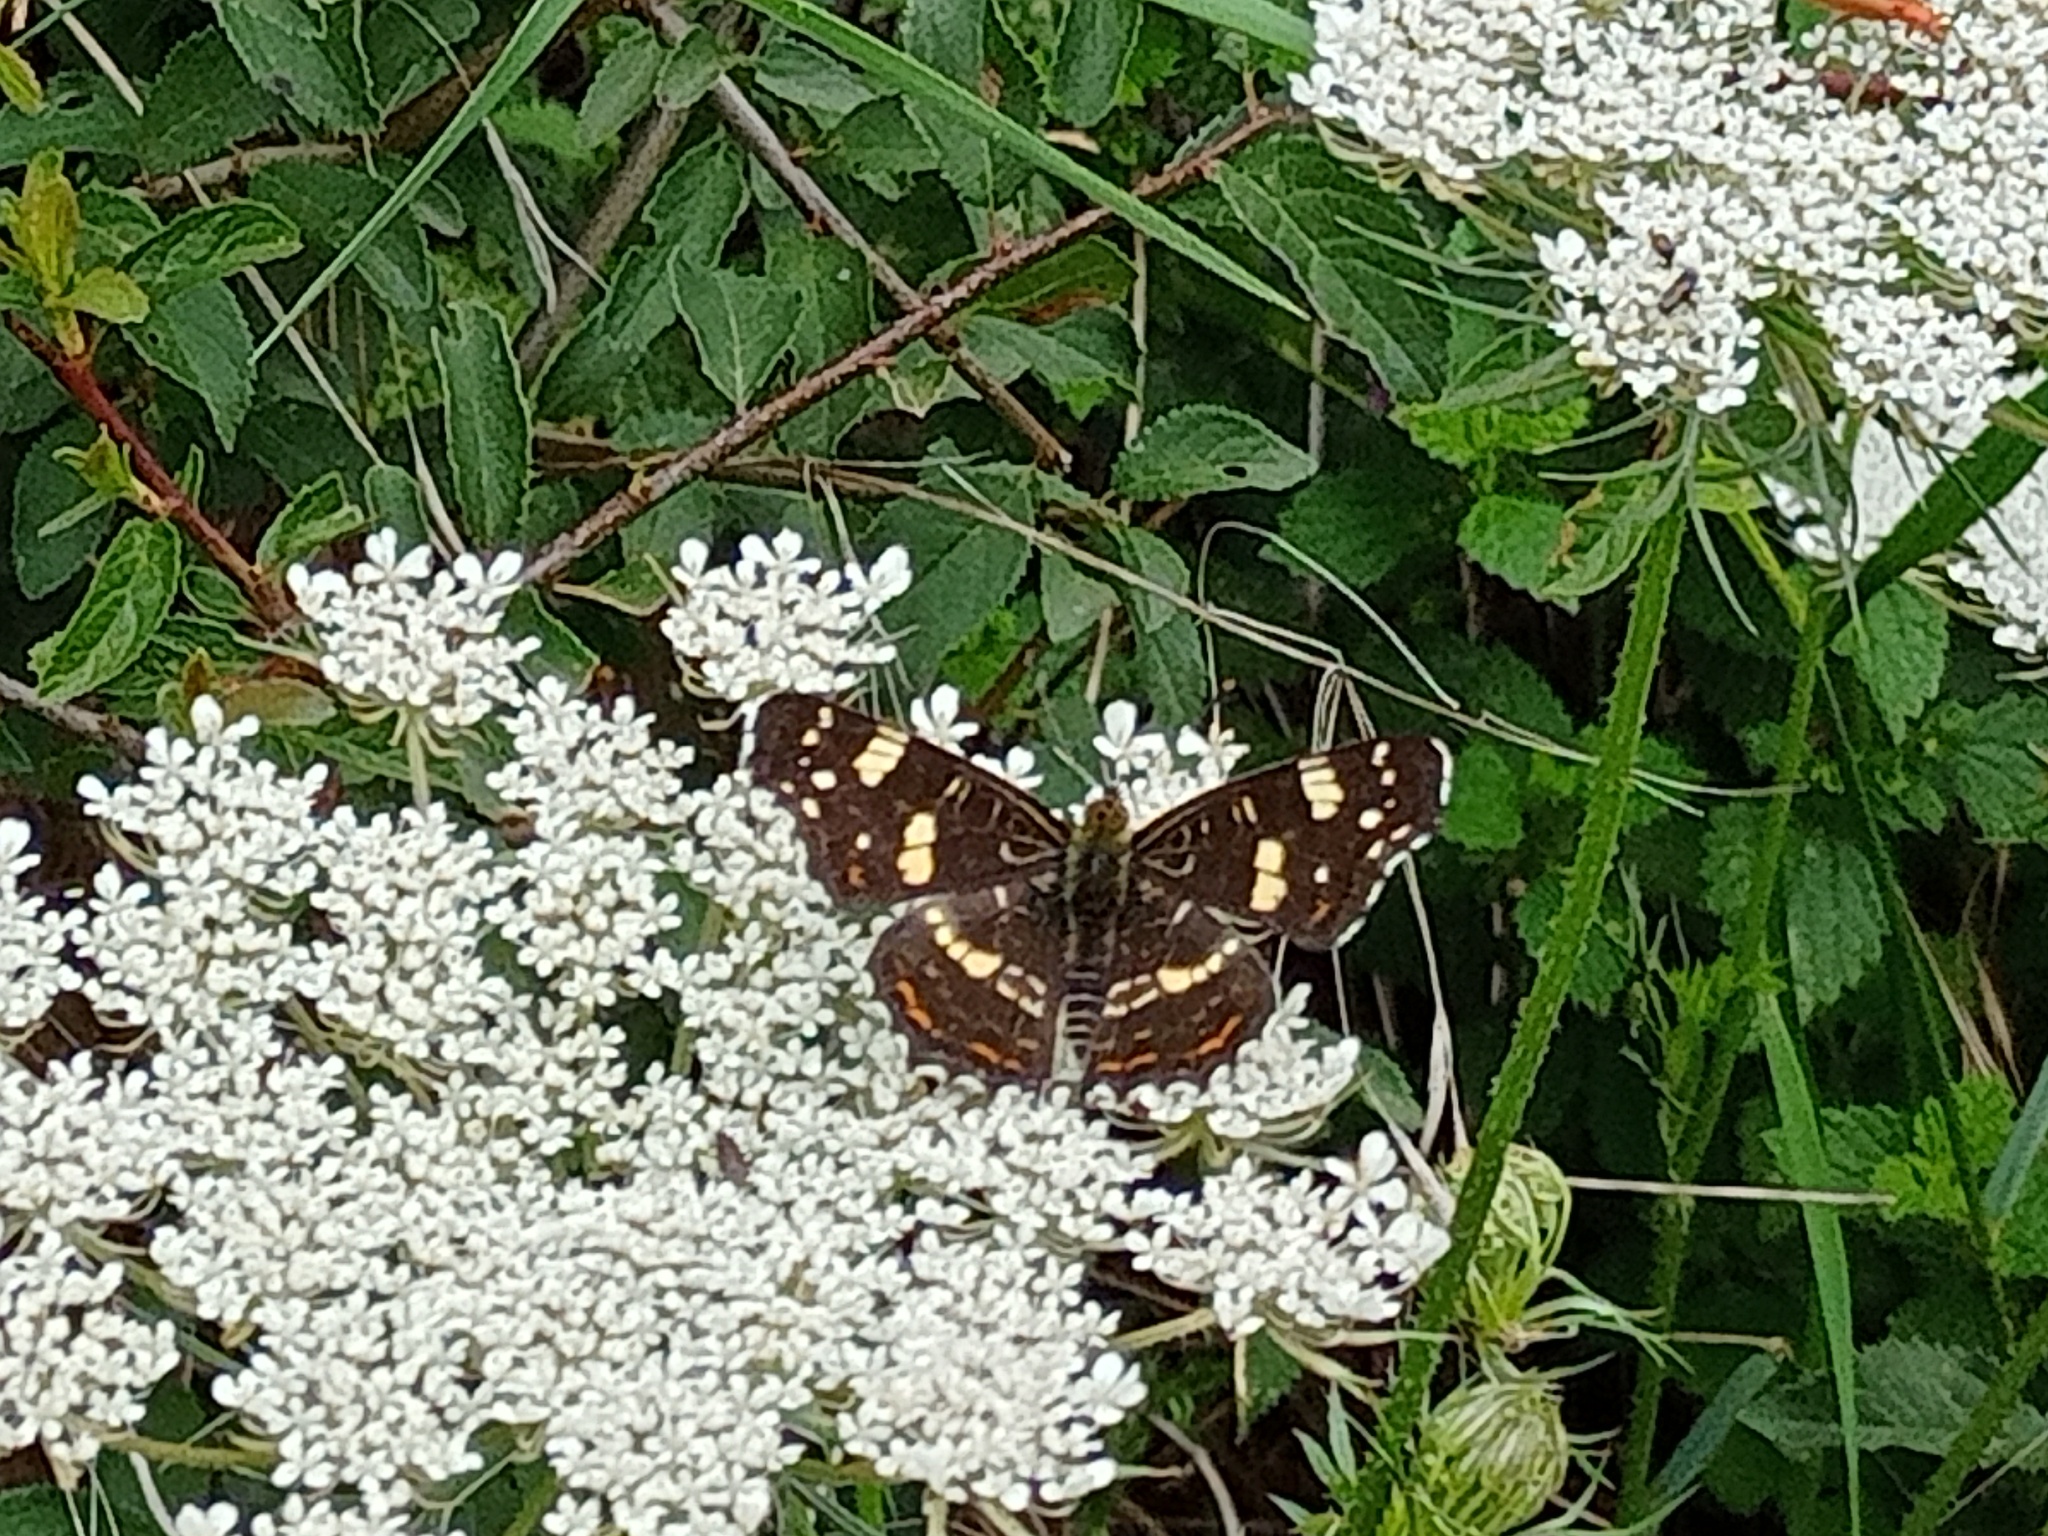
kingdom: Animalia
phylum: Arthropoda
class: Insecta
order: Lepidoptera
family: Nymphalidae
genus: Araschnia
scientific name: Araschnia levana
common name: Map butterfly
